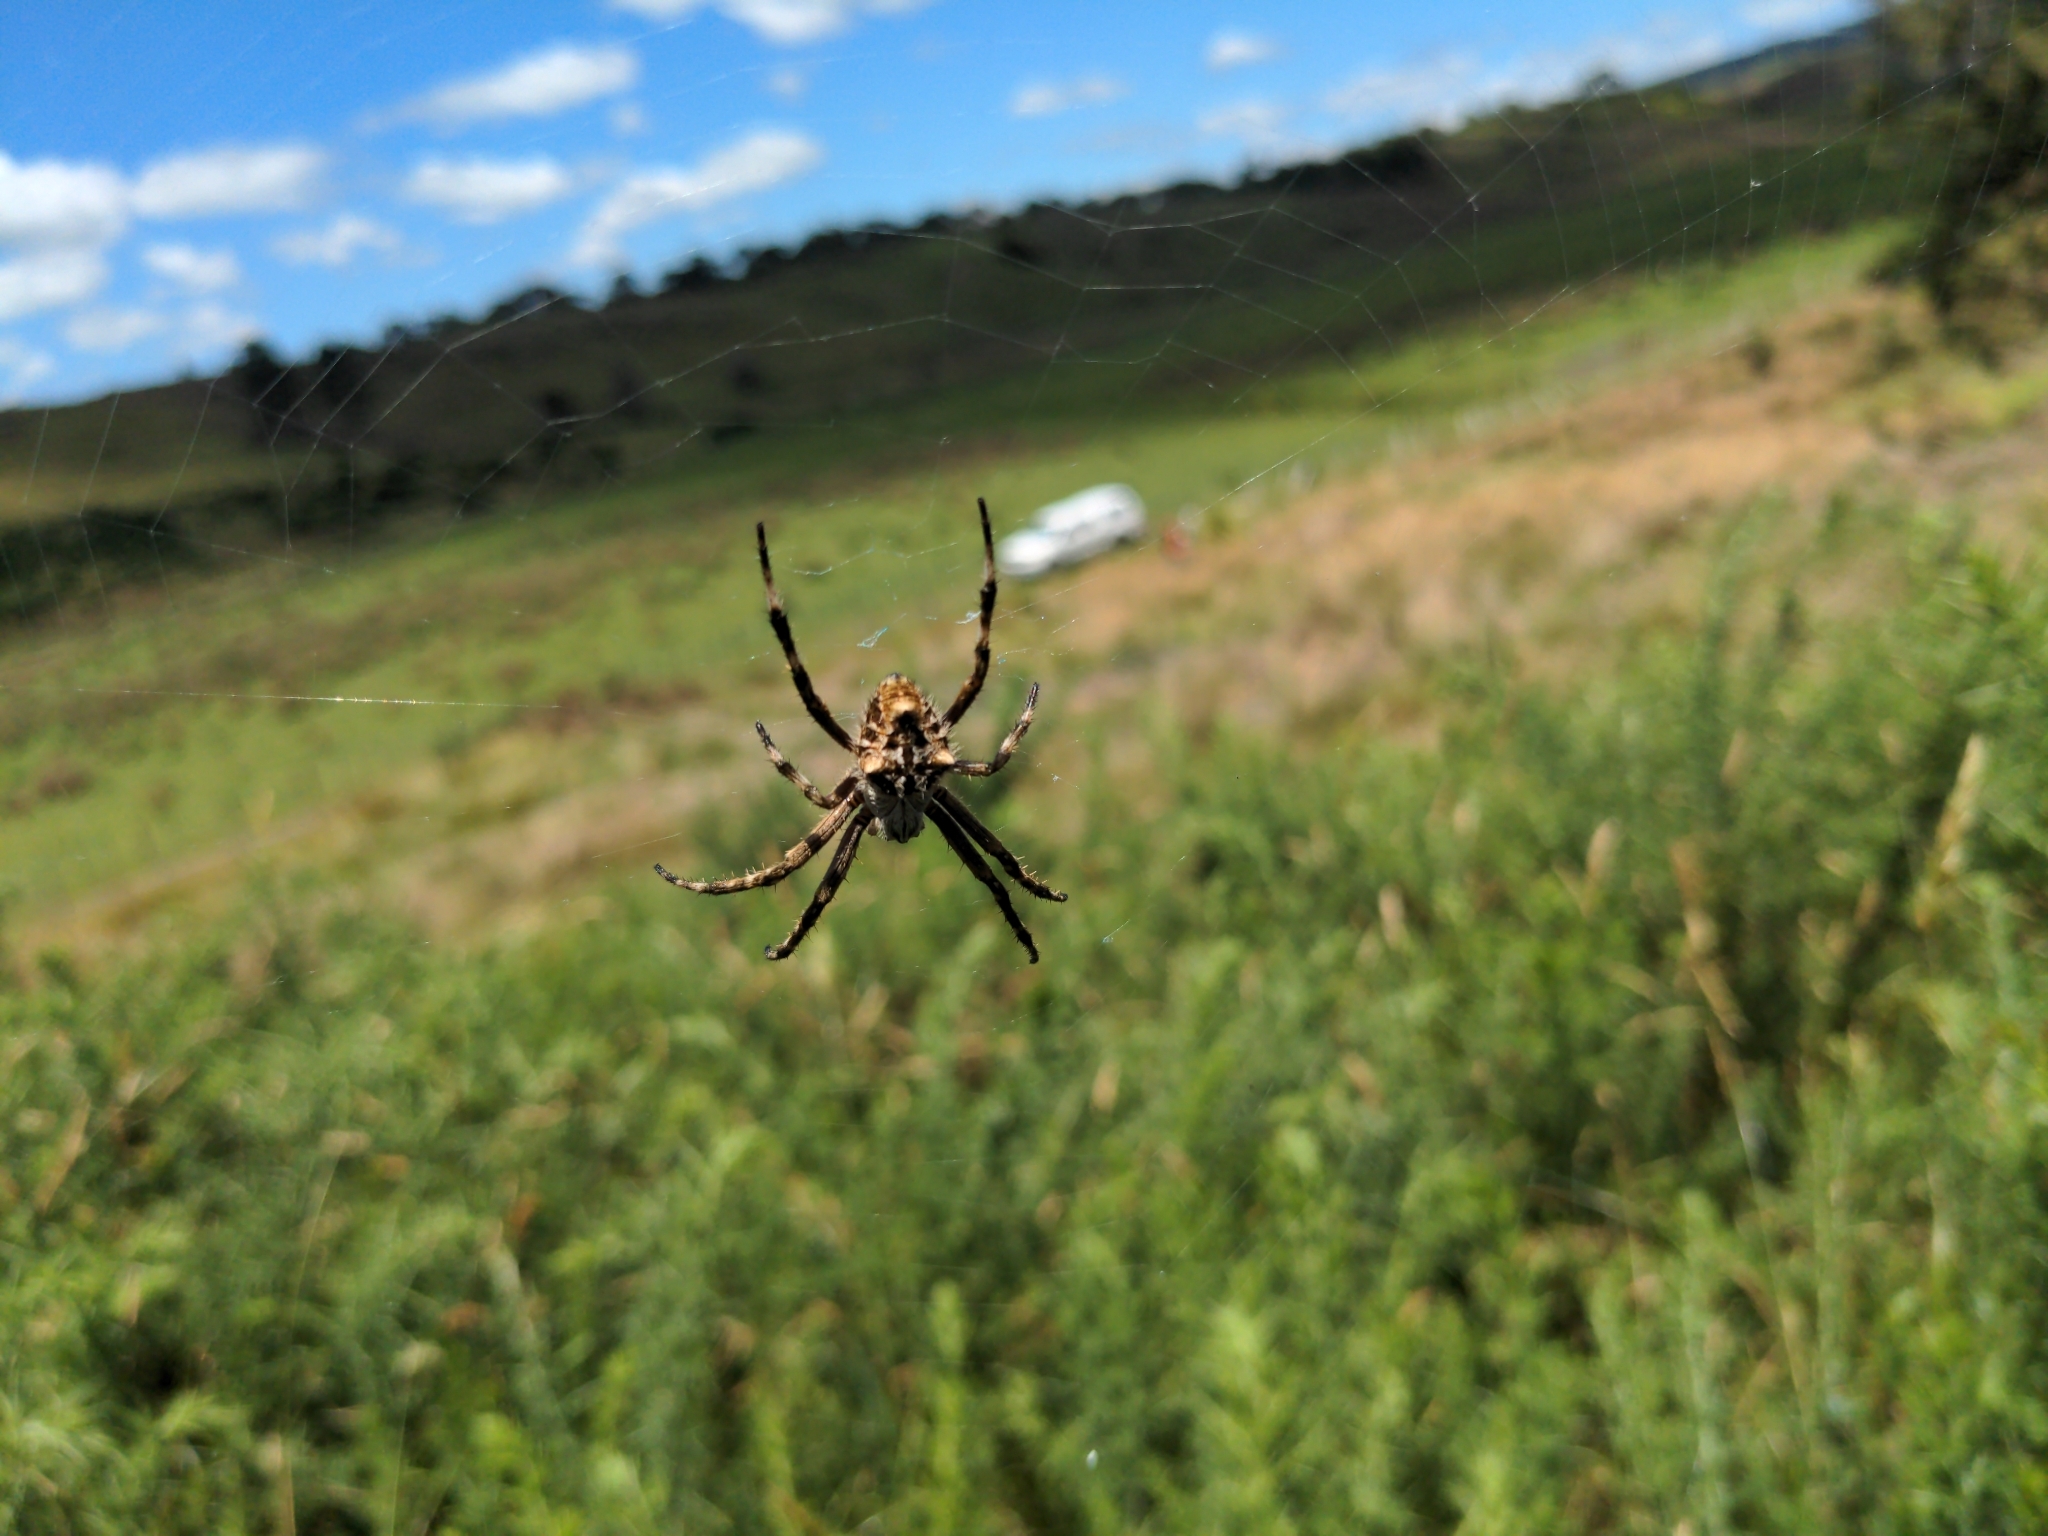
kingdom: Animalia
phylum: Arthropoda
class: Arachnida
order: Araneae
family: Araneidae
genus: Backobourkia
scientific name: Backobourkia brouni
